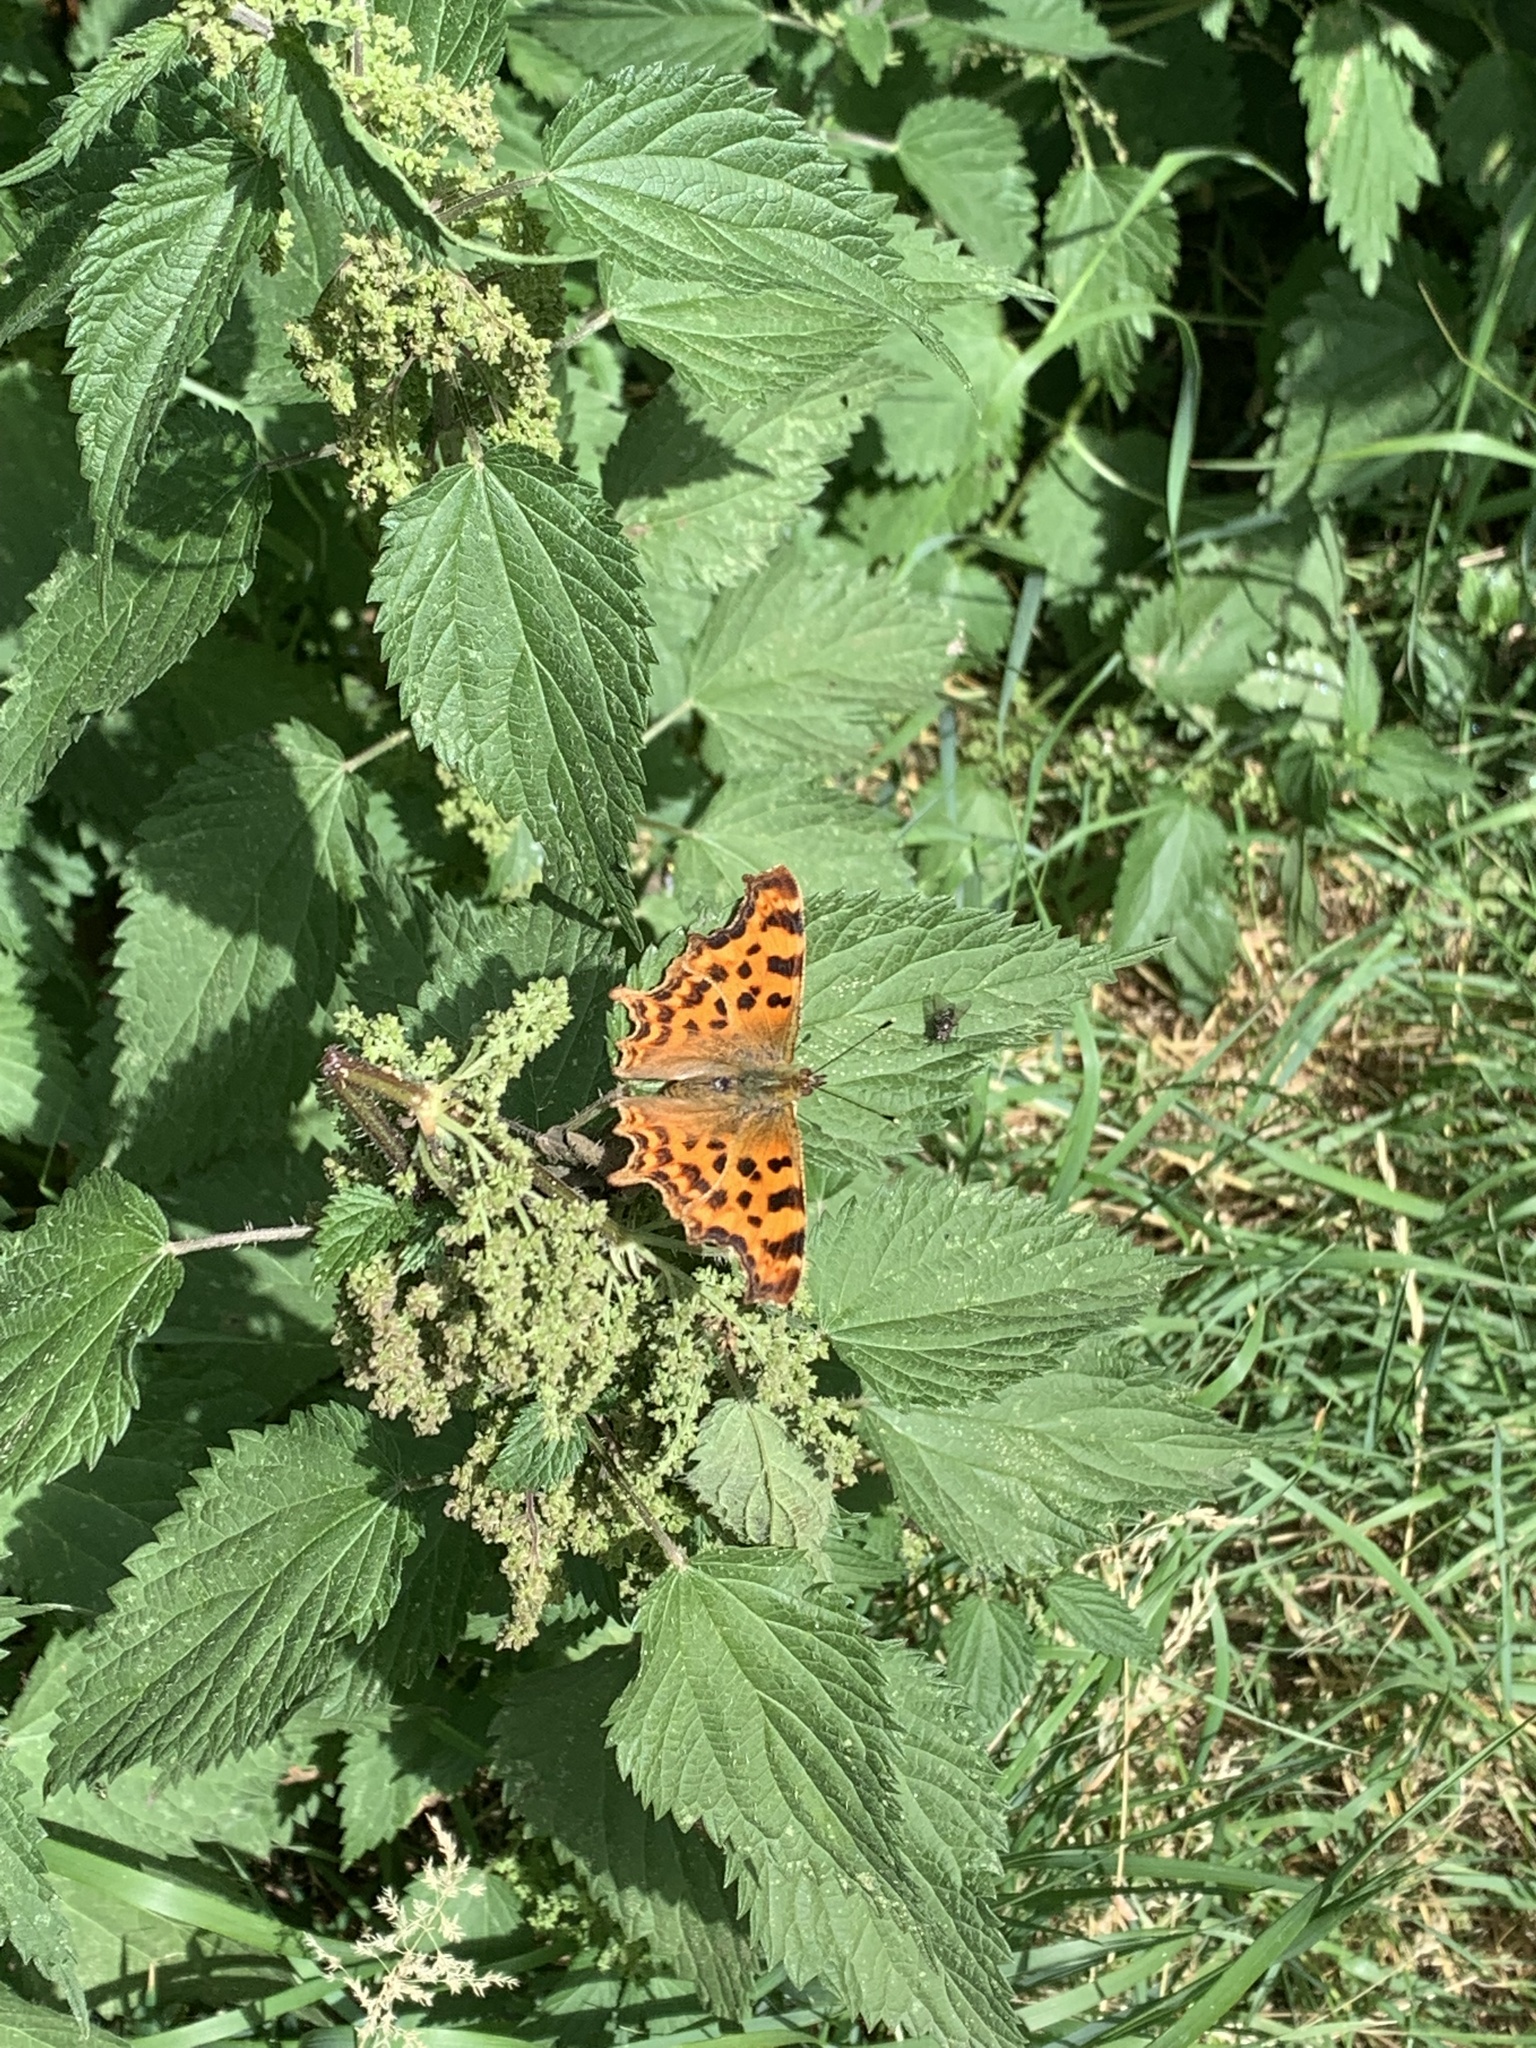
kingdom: Animalia
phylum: Arthropoda
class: Insecta
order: Lepidoptera
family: Nymphalidae
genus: Polygonia
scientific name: Polygonia c-album
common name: Comma
